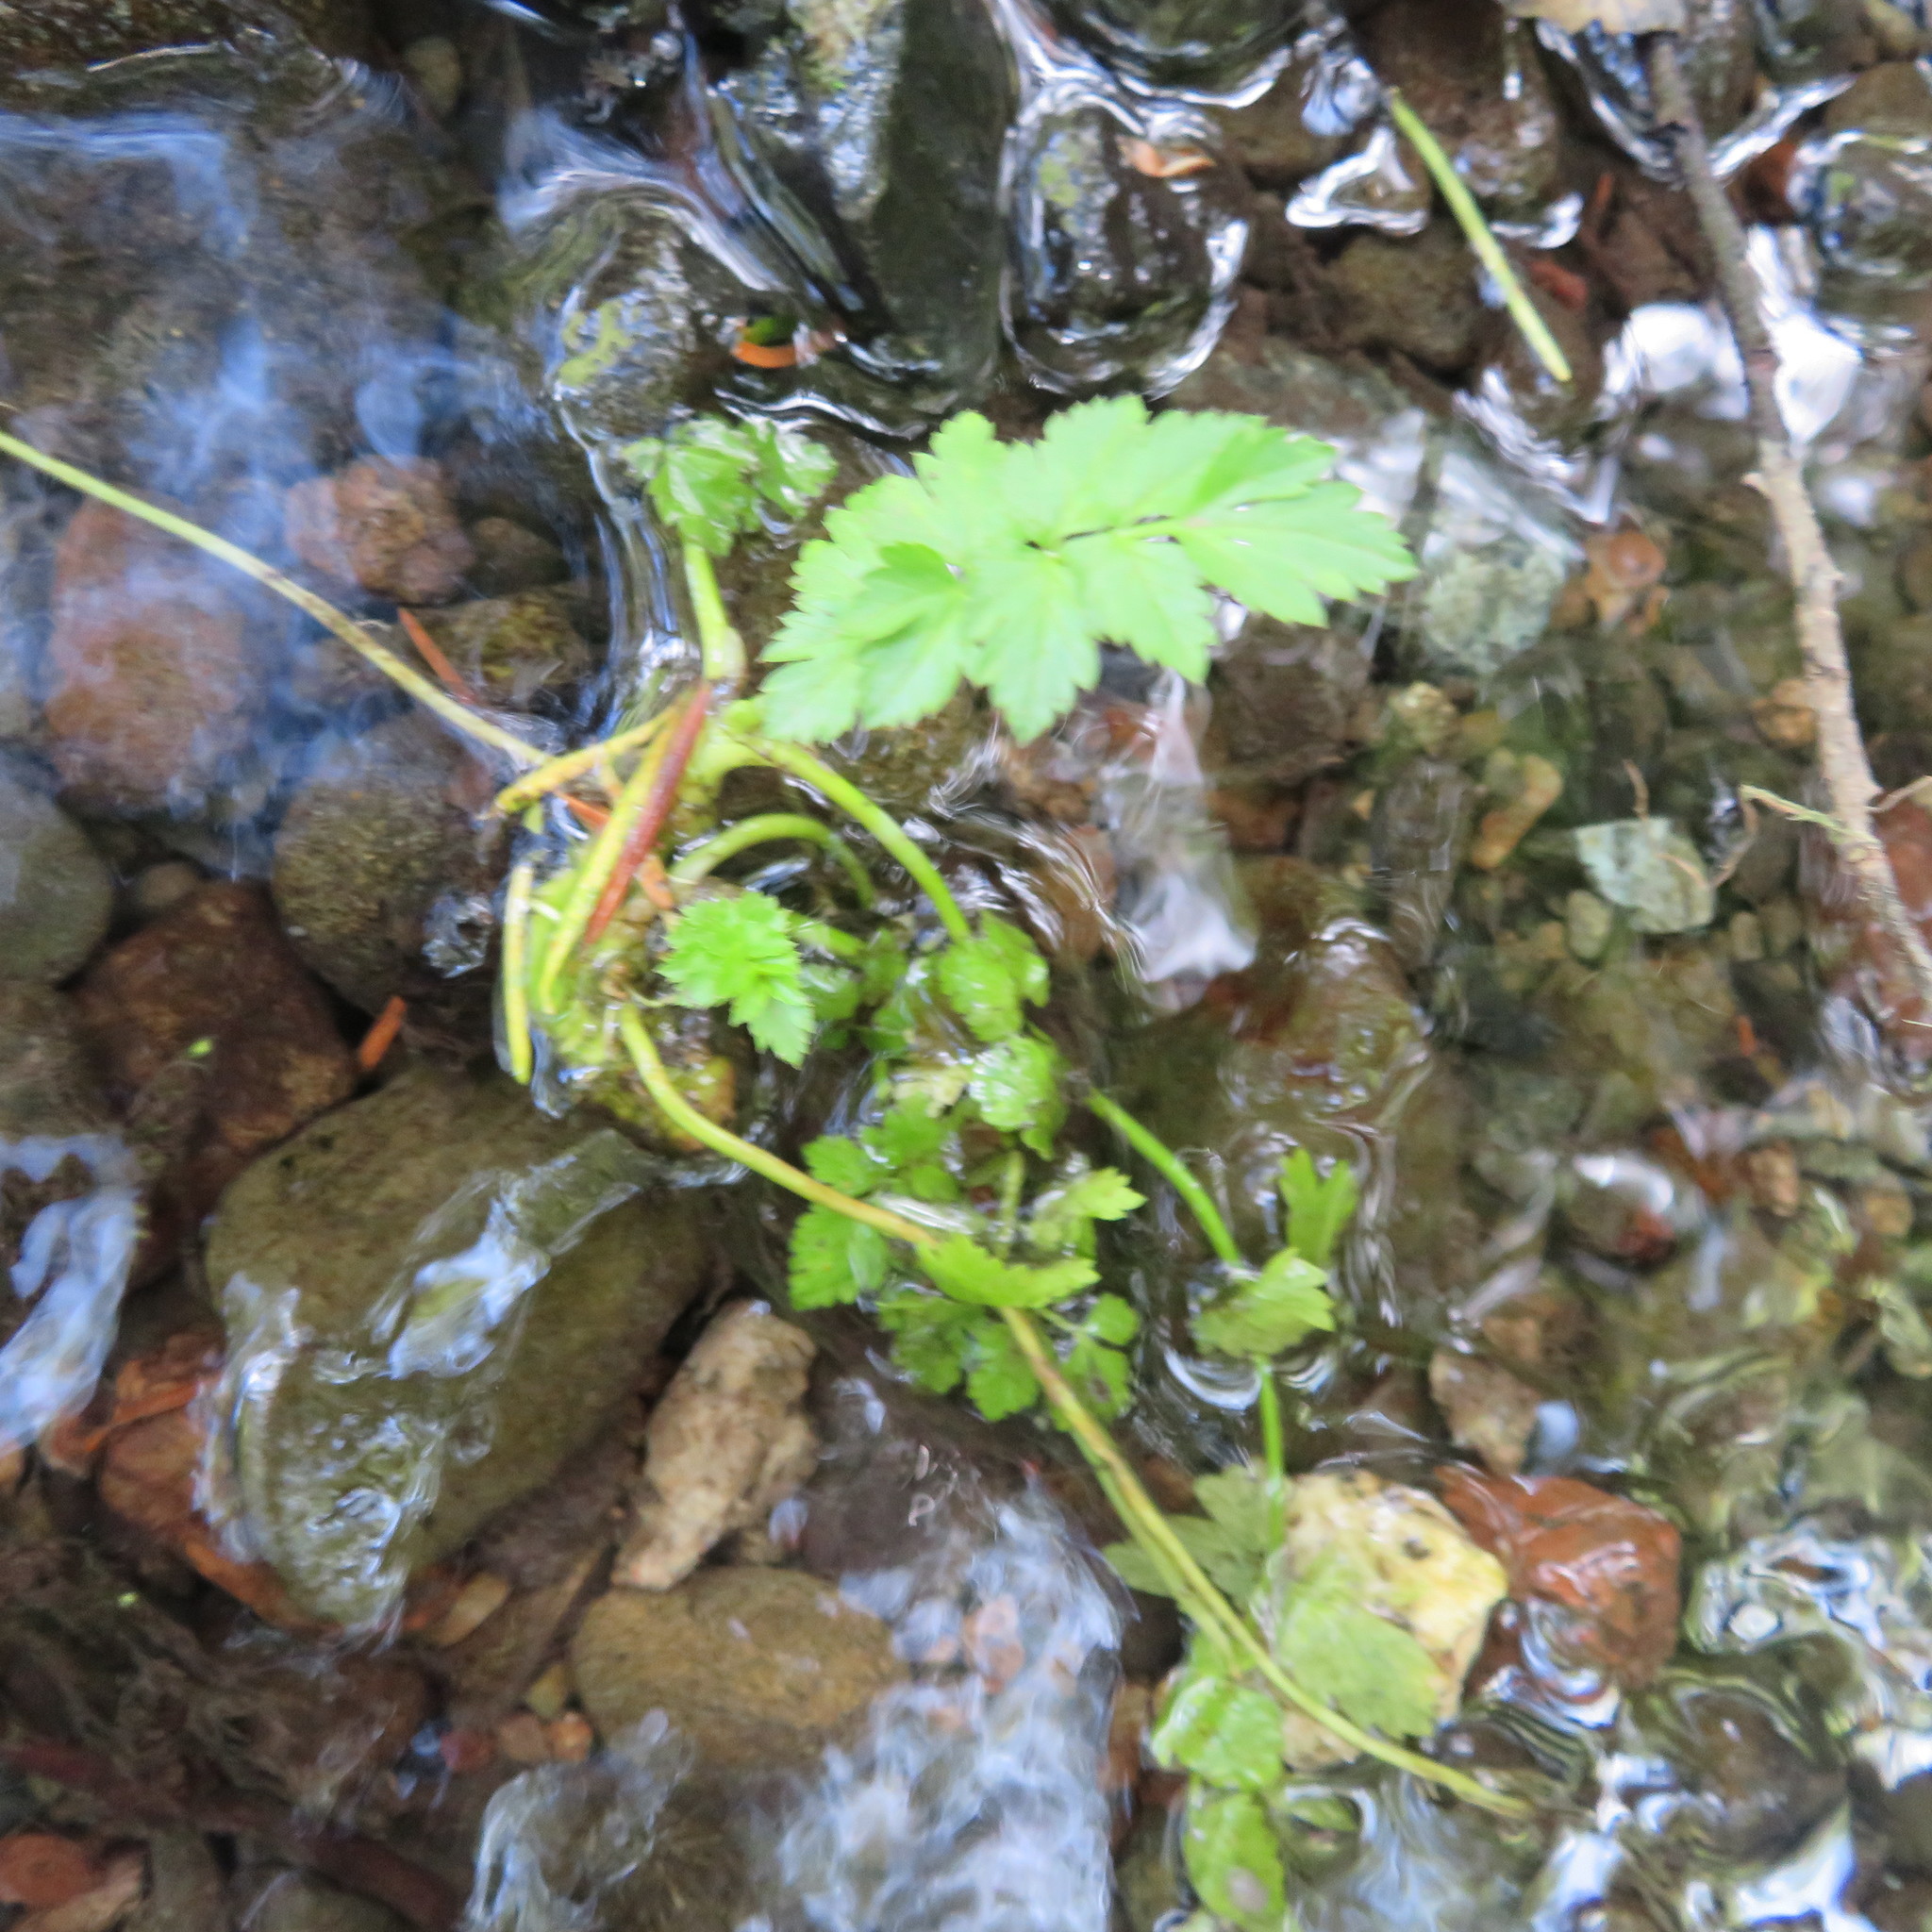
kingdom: Plantae
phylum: Tracheophyta
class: Magnoliopsida
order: Apiales
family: Apiaceae
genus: Oenanthe
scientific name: Oenanthe sarmentosa
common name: American water-parsley
